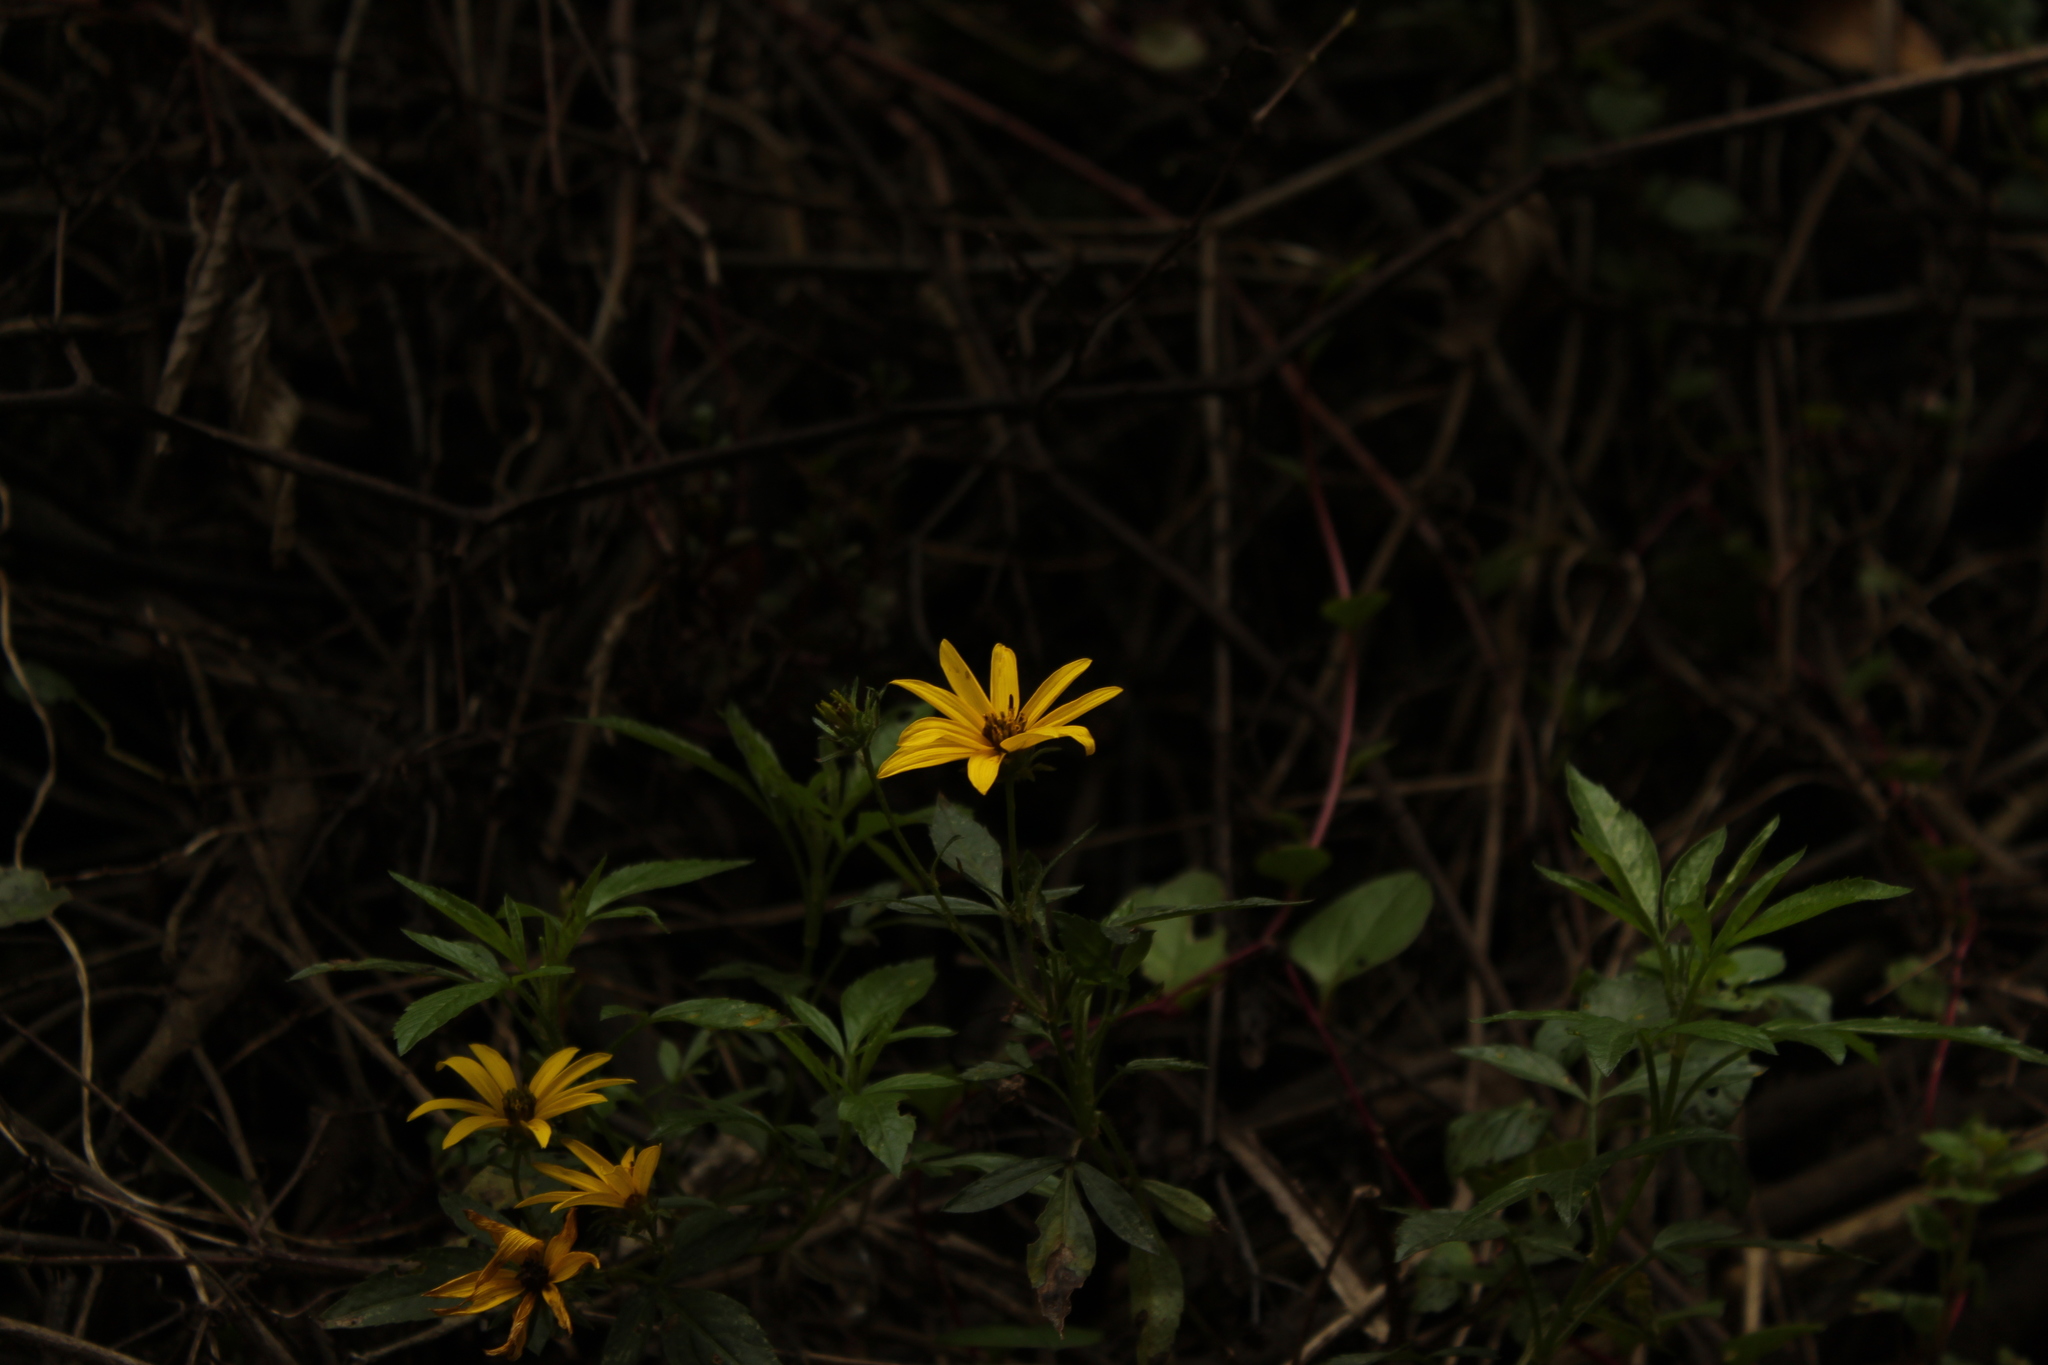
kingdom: Plantae
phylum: Tracheophyta
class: Magnoliopsida
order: Asterales
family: Asteraceae
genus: Bidens
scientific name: Bidens rubifolia
